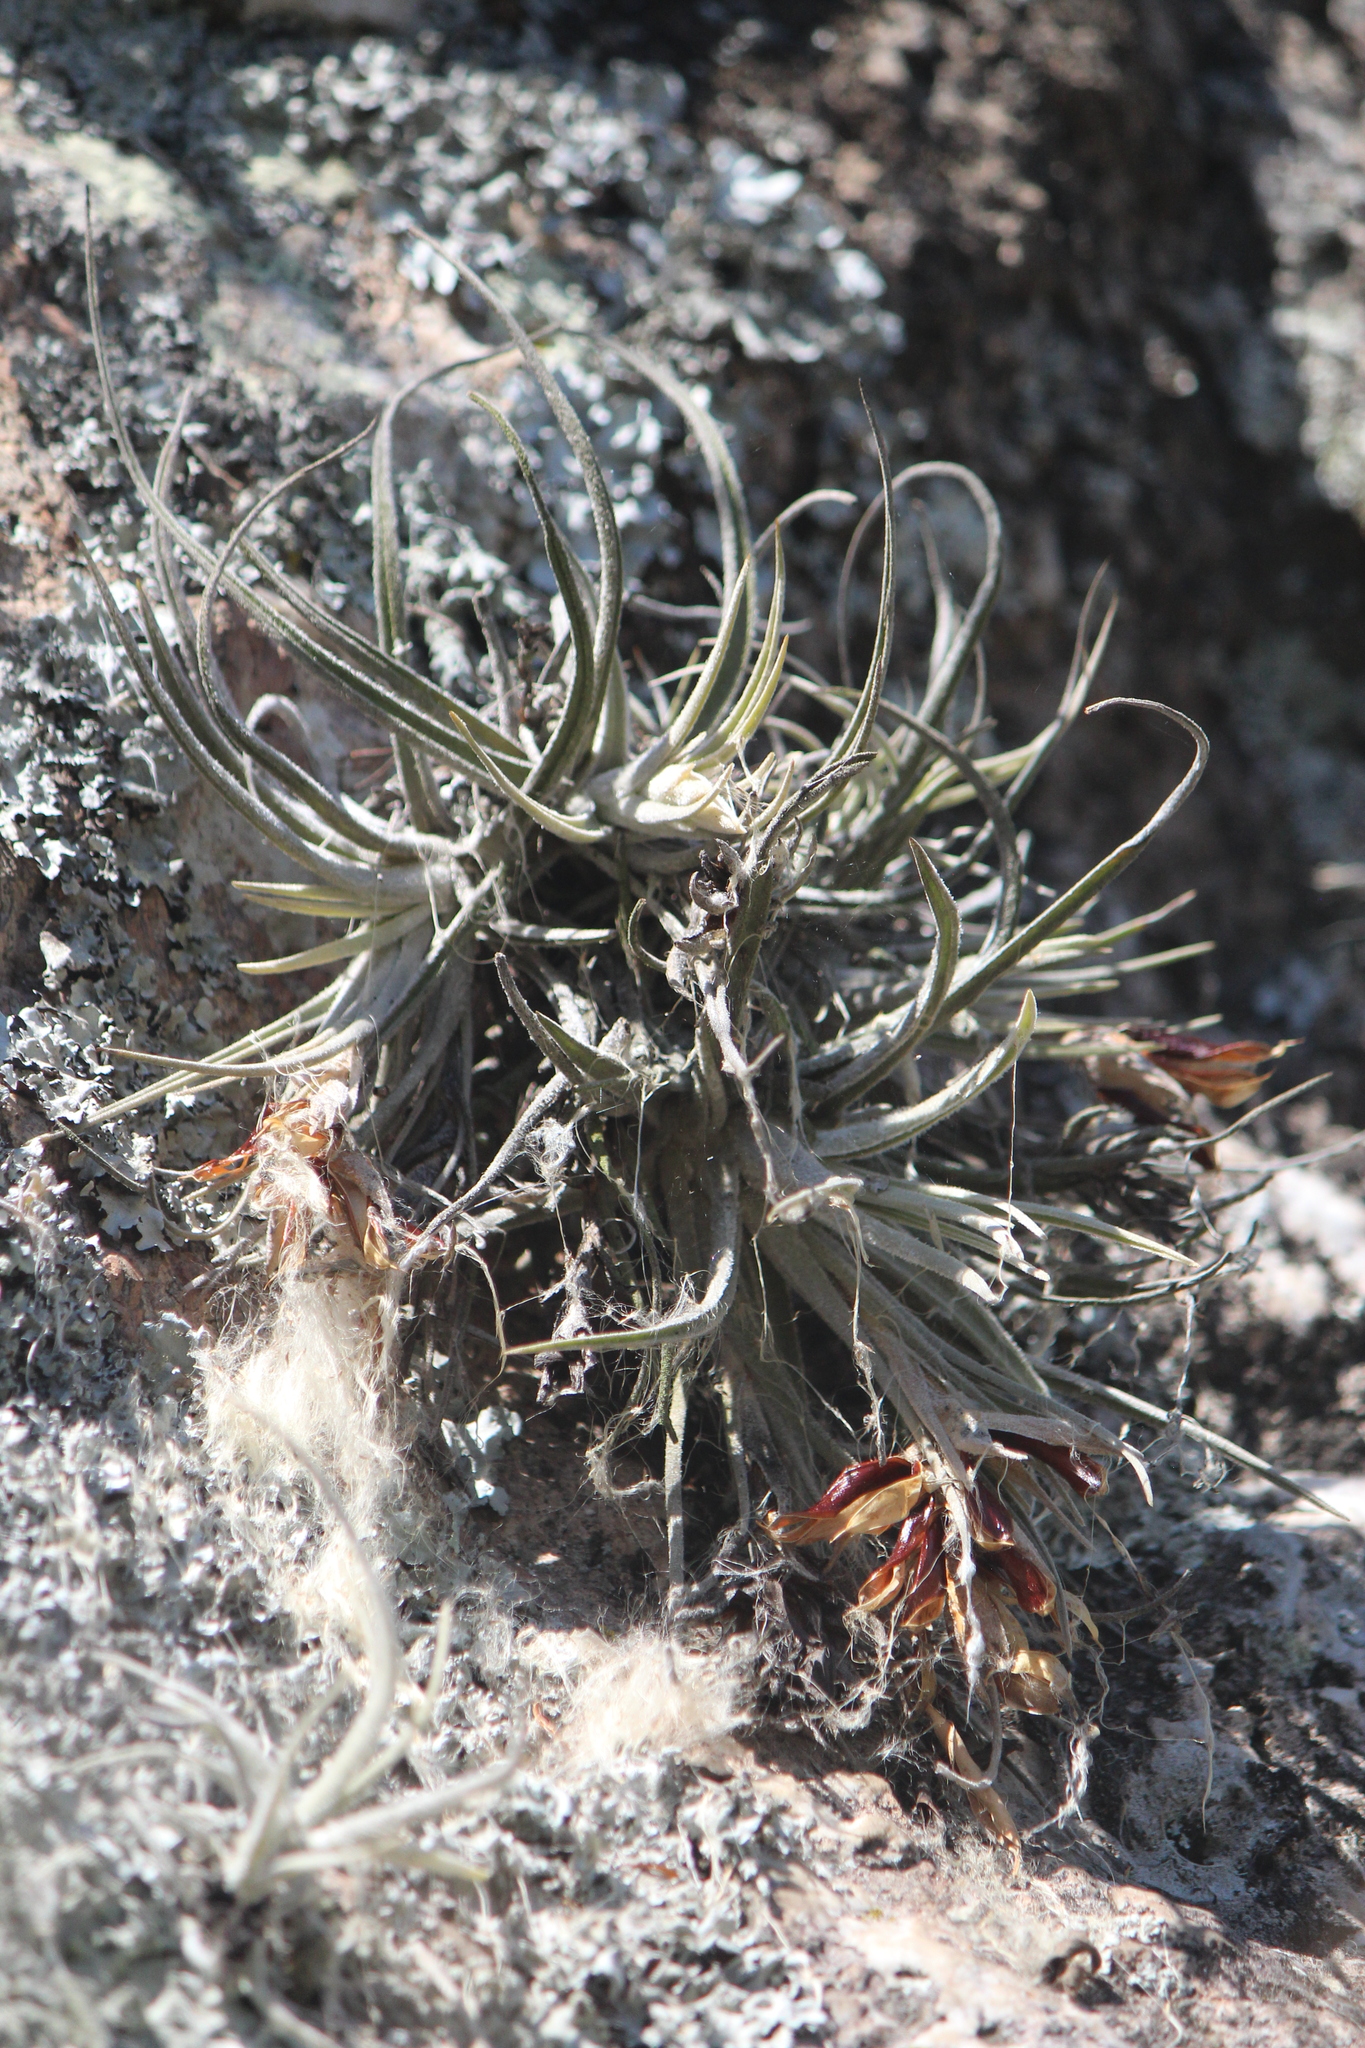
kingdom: Plantae
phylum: Tracheophyta
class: Liliopsida
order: Poales
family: Bromeliaceae
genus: Tillandsia
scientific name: Tillandsia lepidosepala
